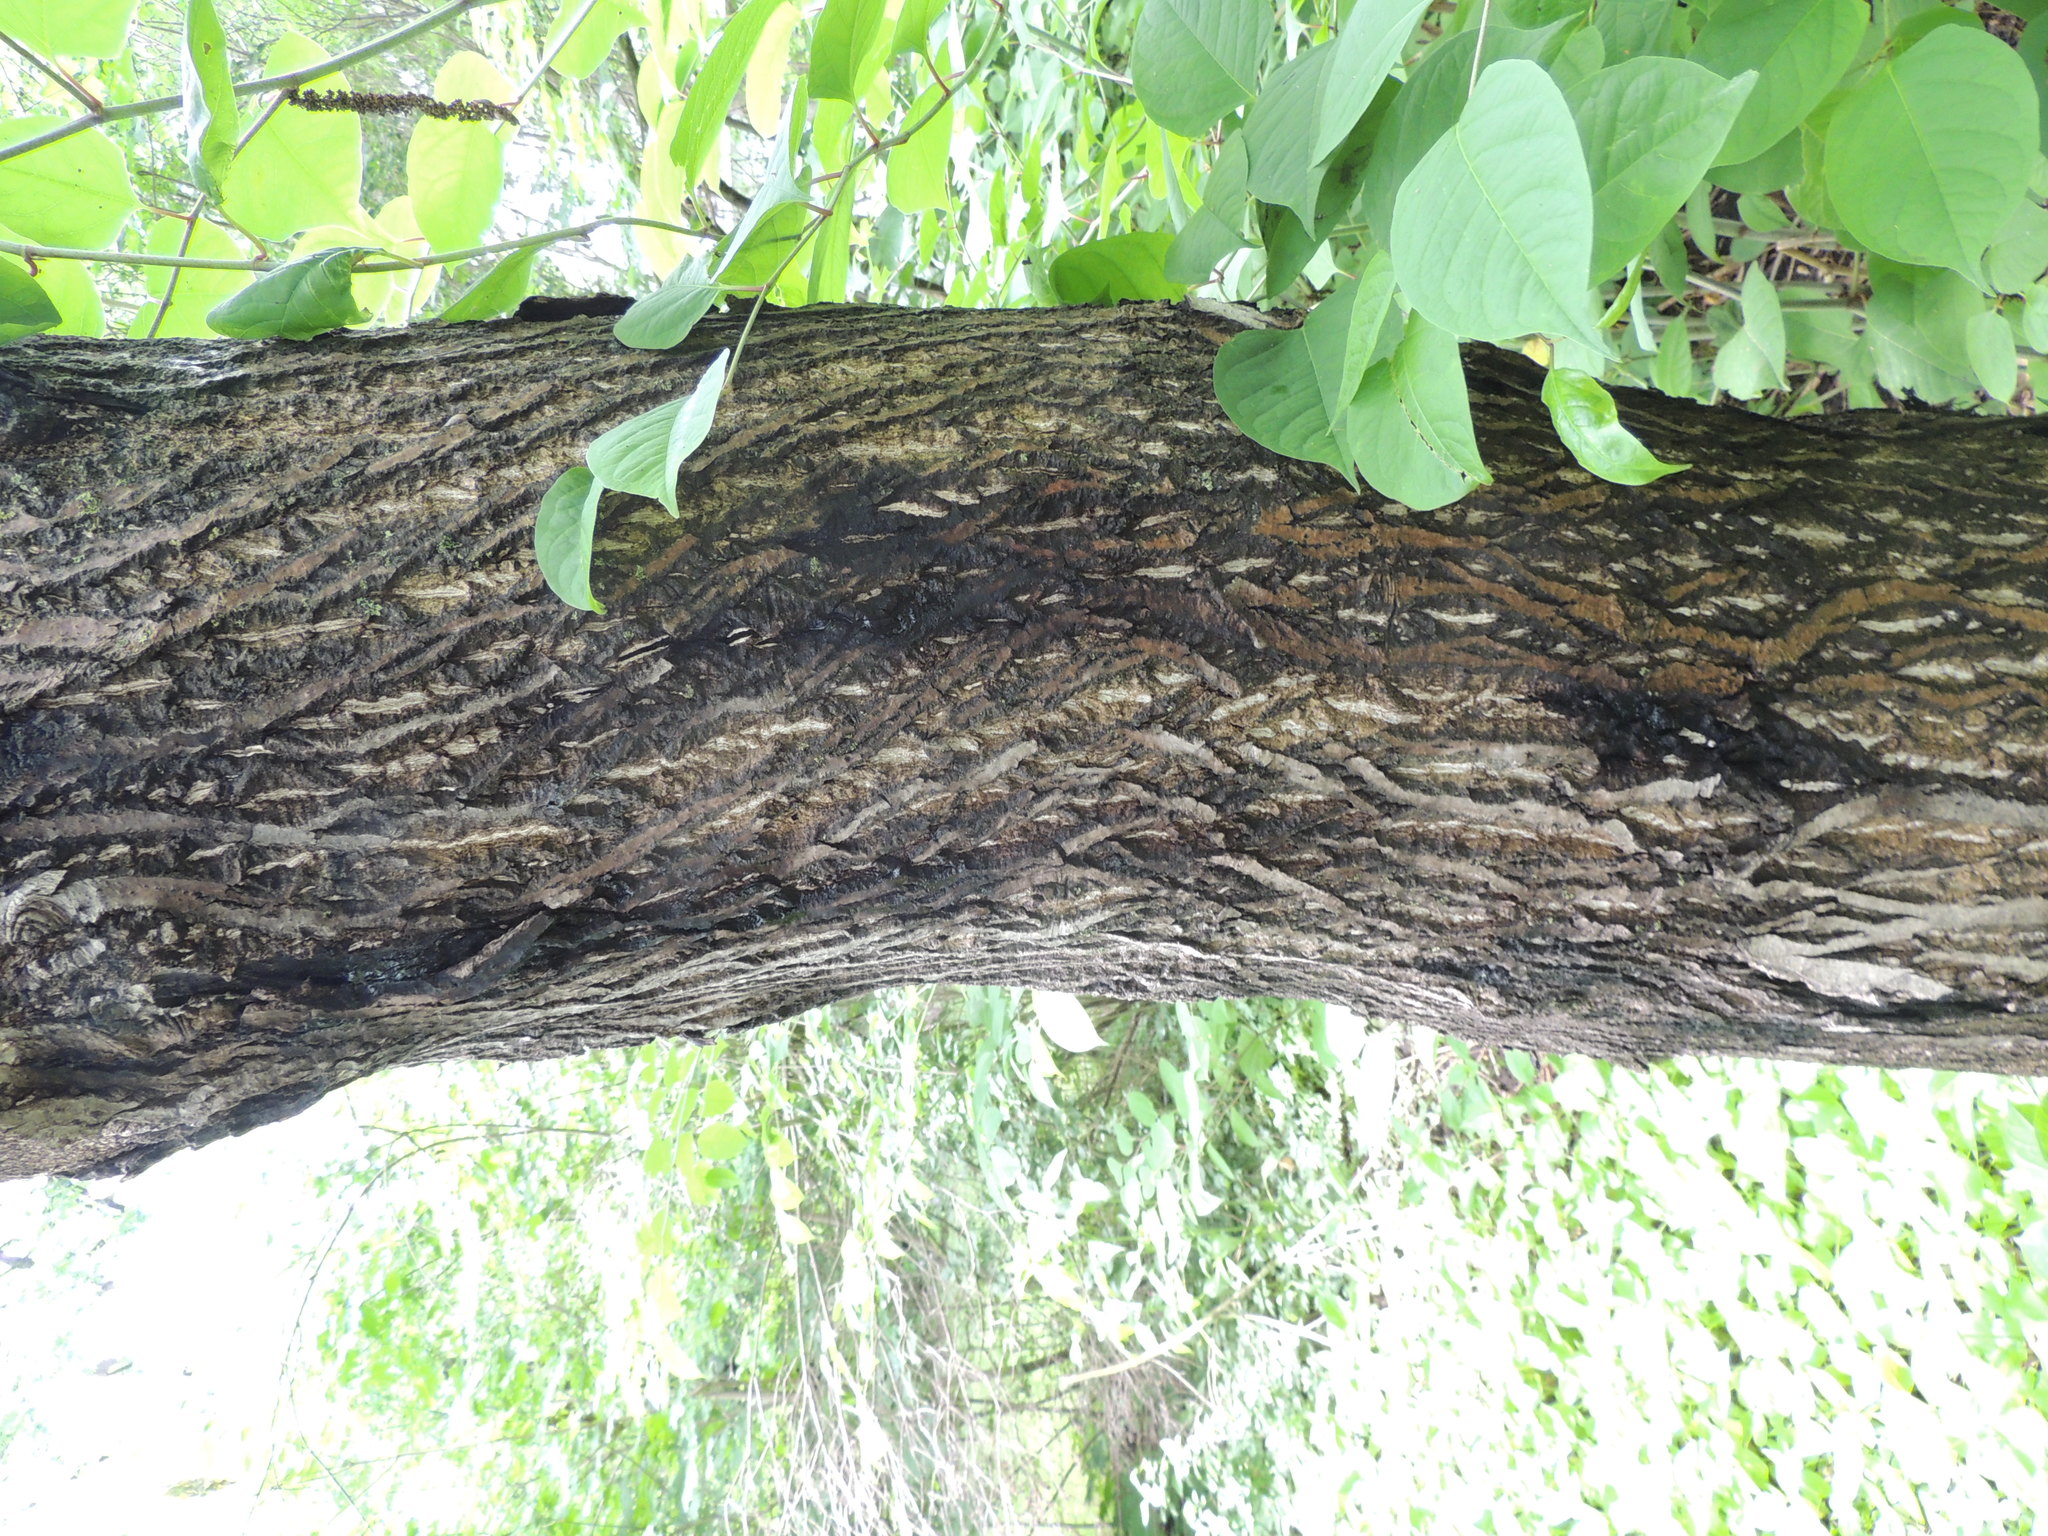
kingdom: Fungi
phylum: Ascomycota
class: Sordariomycetes
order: Diaporthales
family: Gnomoniaceae
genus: Ophiognomonia
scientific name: Ophiognomonia clavigignenti-juglandacearum
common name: Butternut canker fungus
